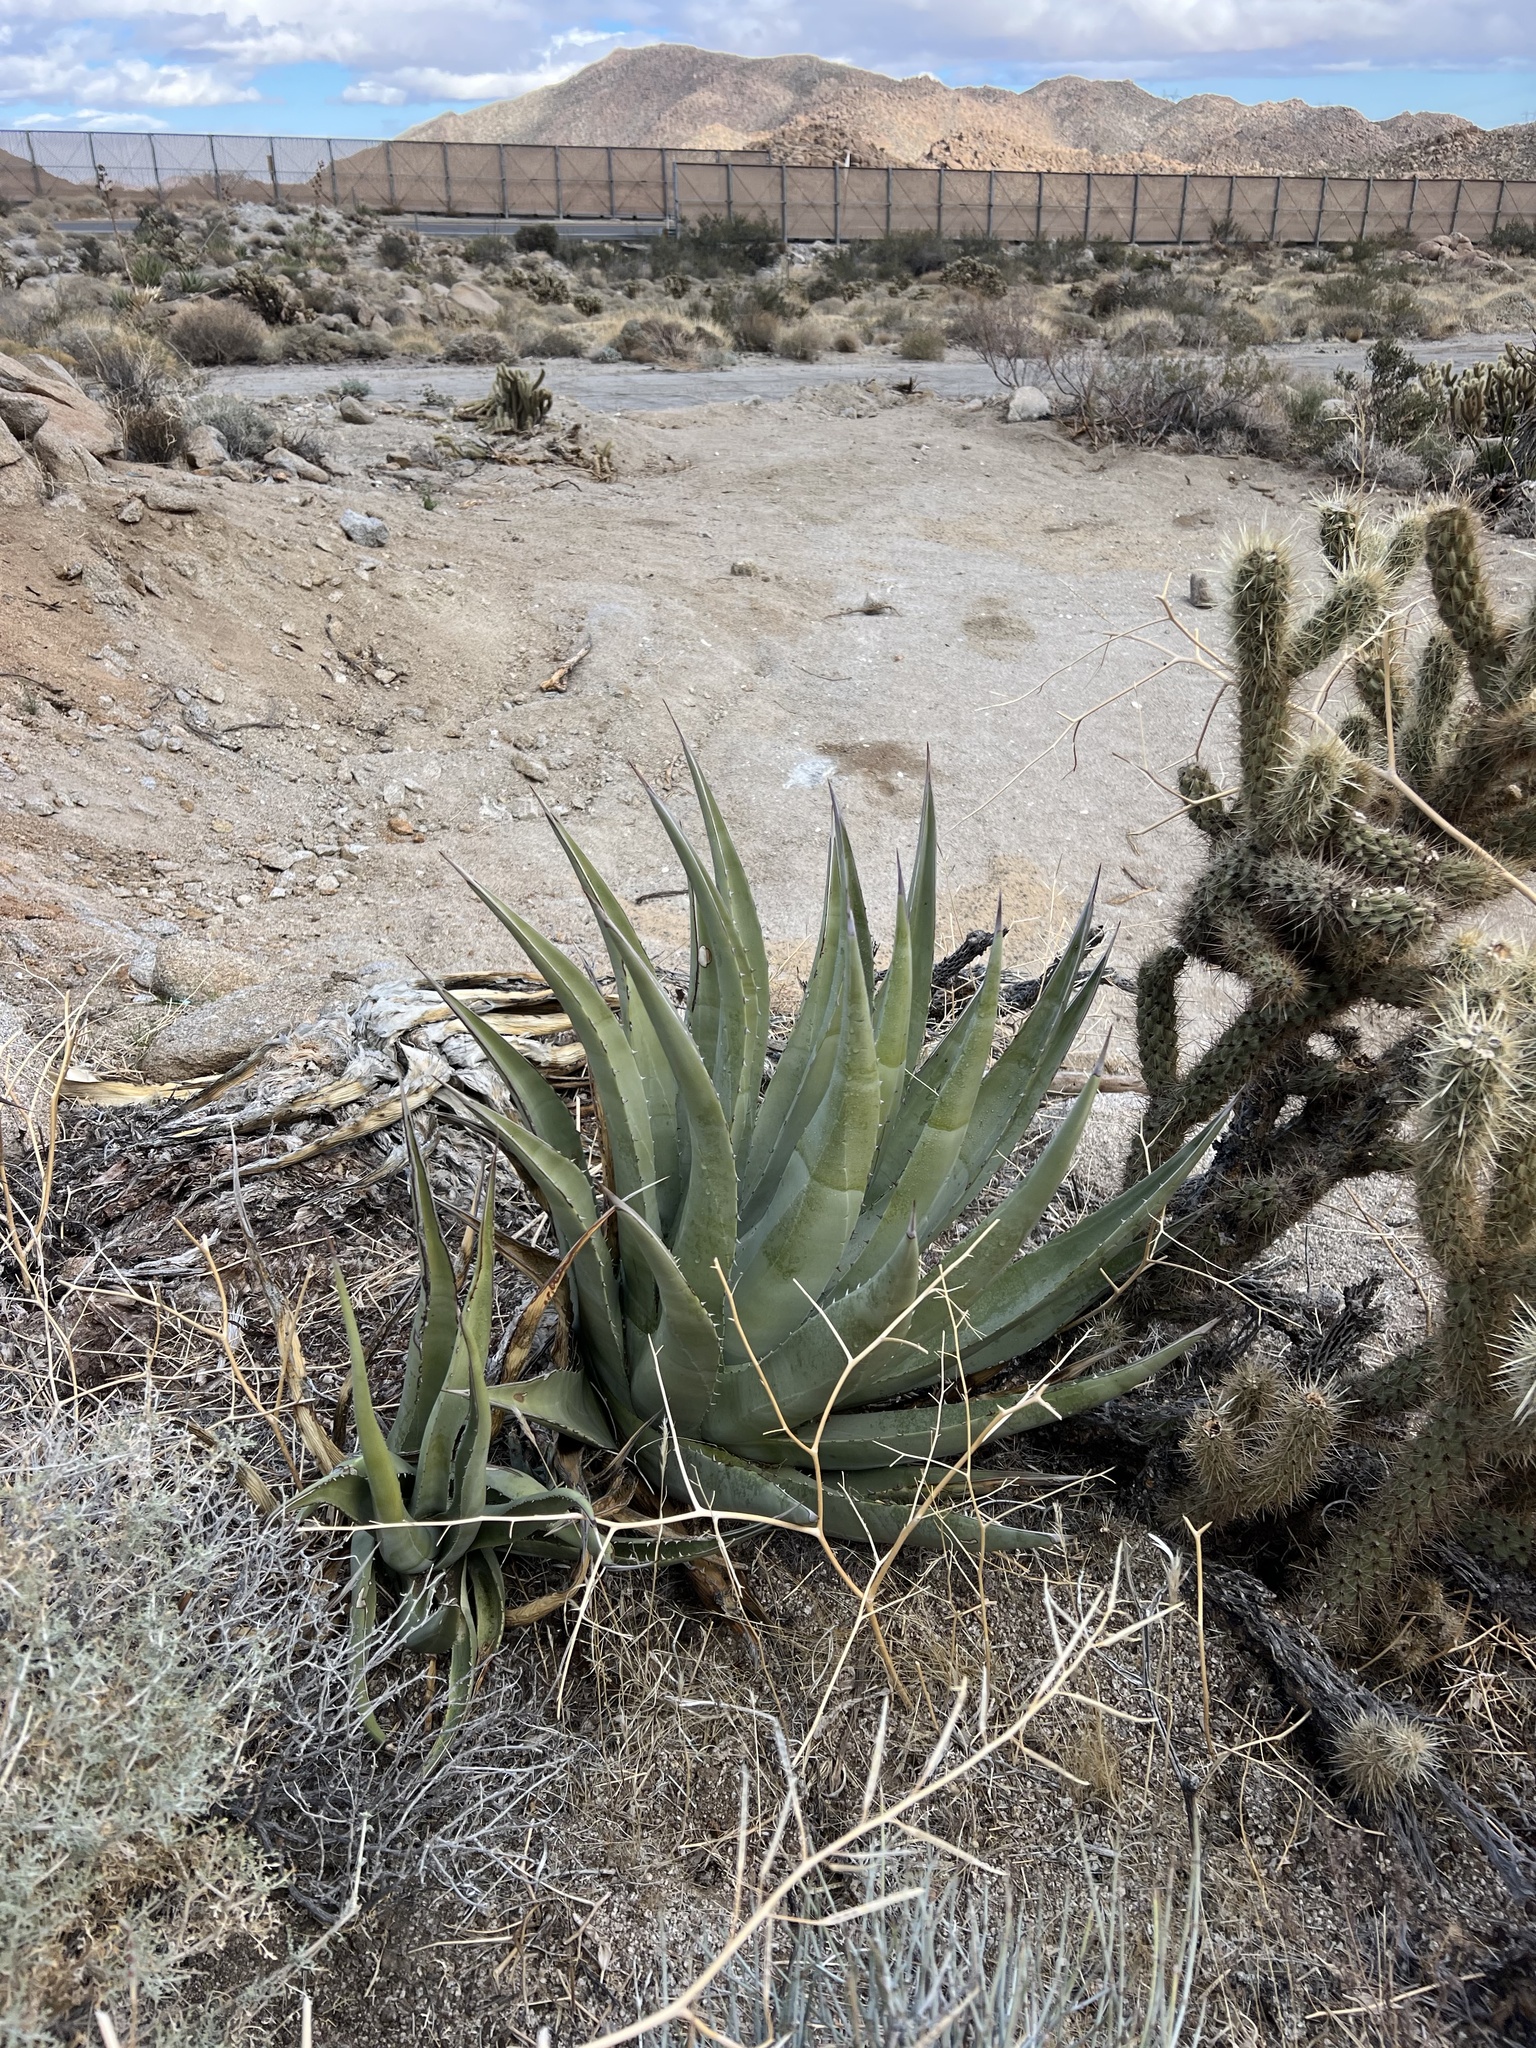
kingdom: Plantae
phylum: Tracheophyta
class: Liliopsida
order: Asparagales
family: Asparagaceae
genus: Agave
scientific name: Agave deserti
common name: Desert agave
